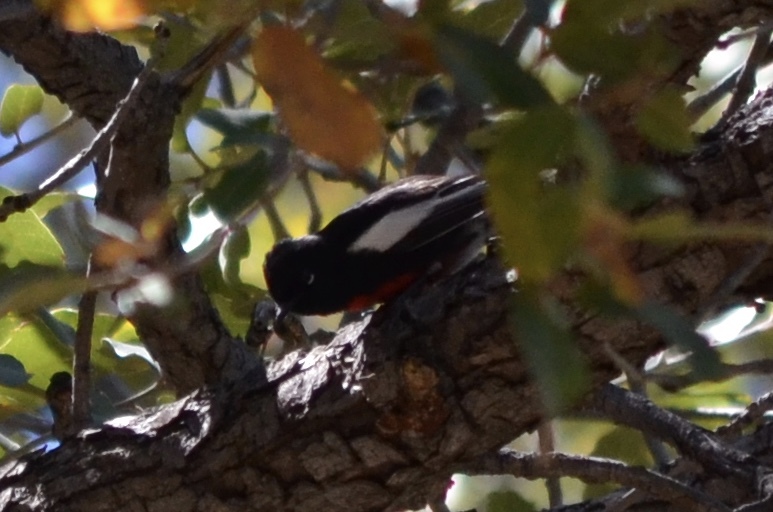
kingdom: Animalia
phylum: Chordata
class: Aves
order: Passeriformes
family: Parulidae
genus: Myioborus
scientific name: Myioborus pictus
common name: Painted whitestart
